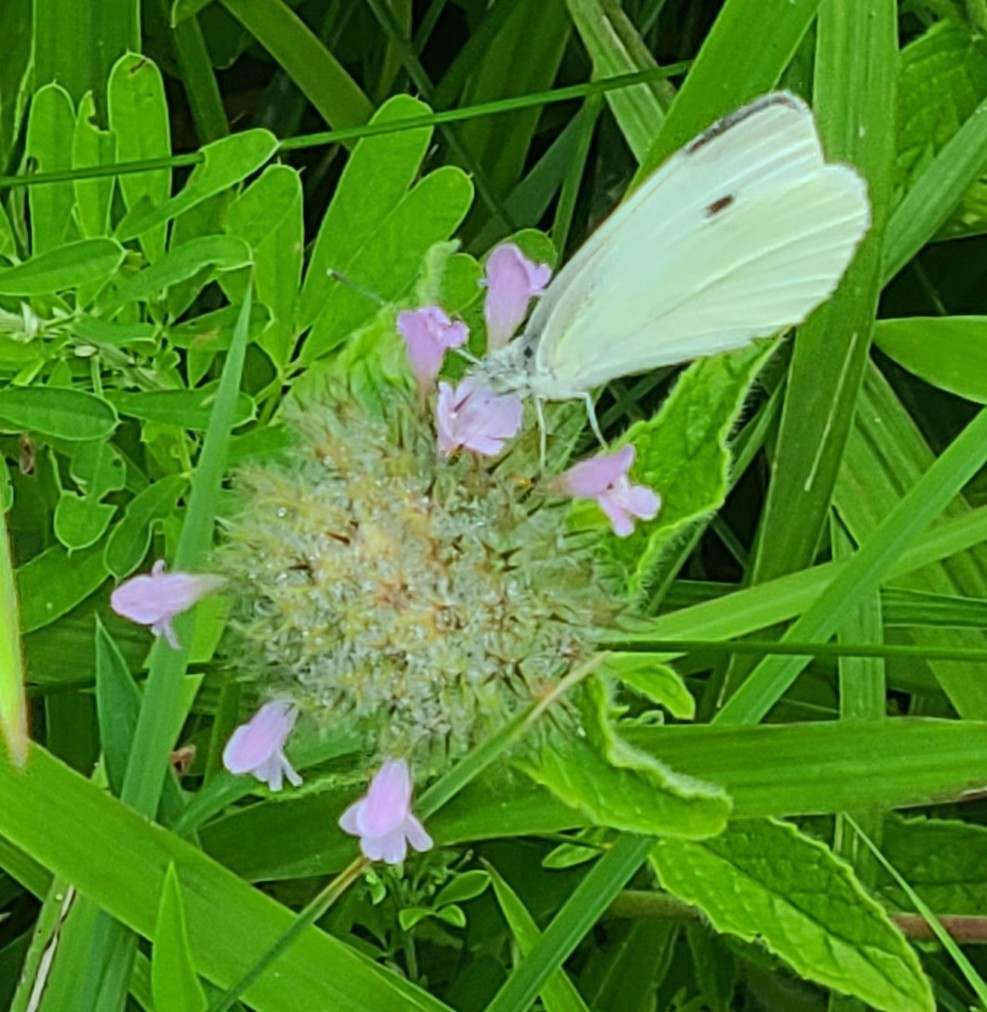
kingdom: Animalia
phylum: Arthropoda
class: Insecta
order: Lepidoptera
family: Pieridae
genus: Pieris
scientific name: Pieris rapae
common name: Small white
